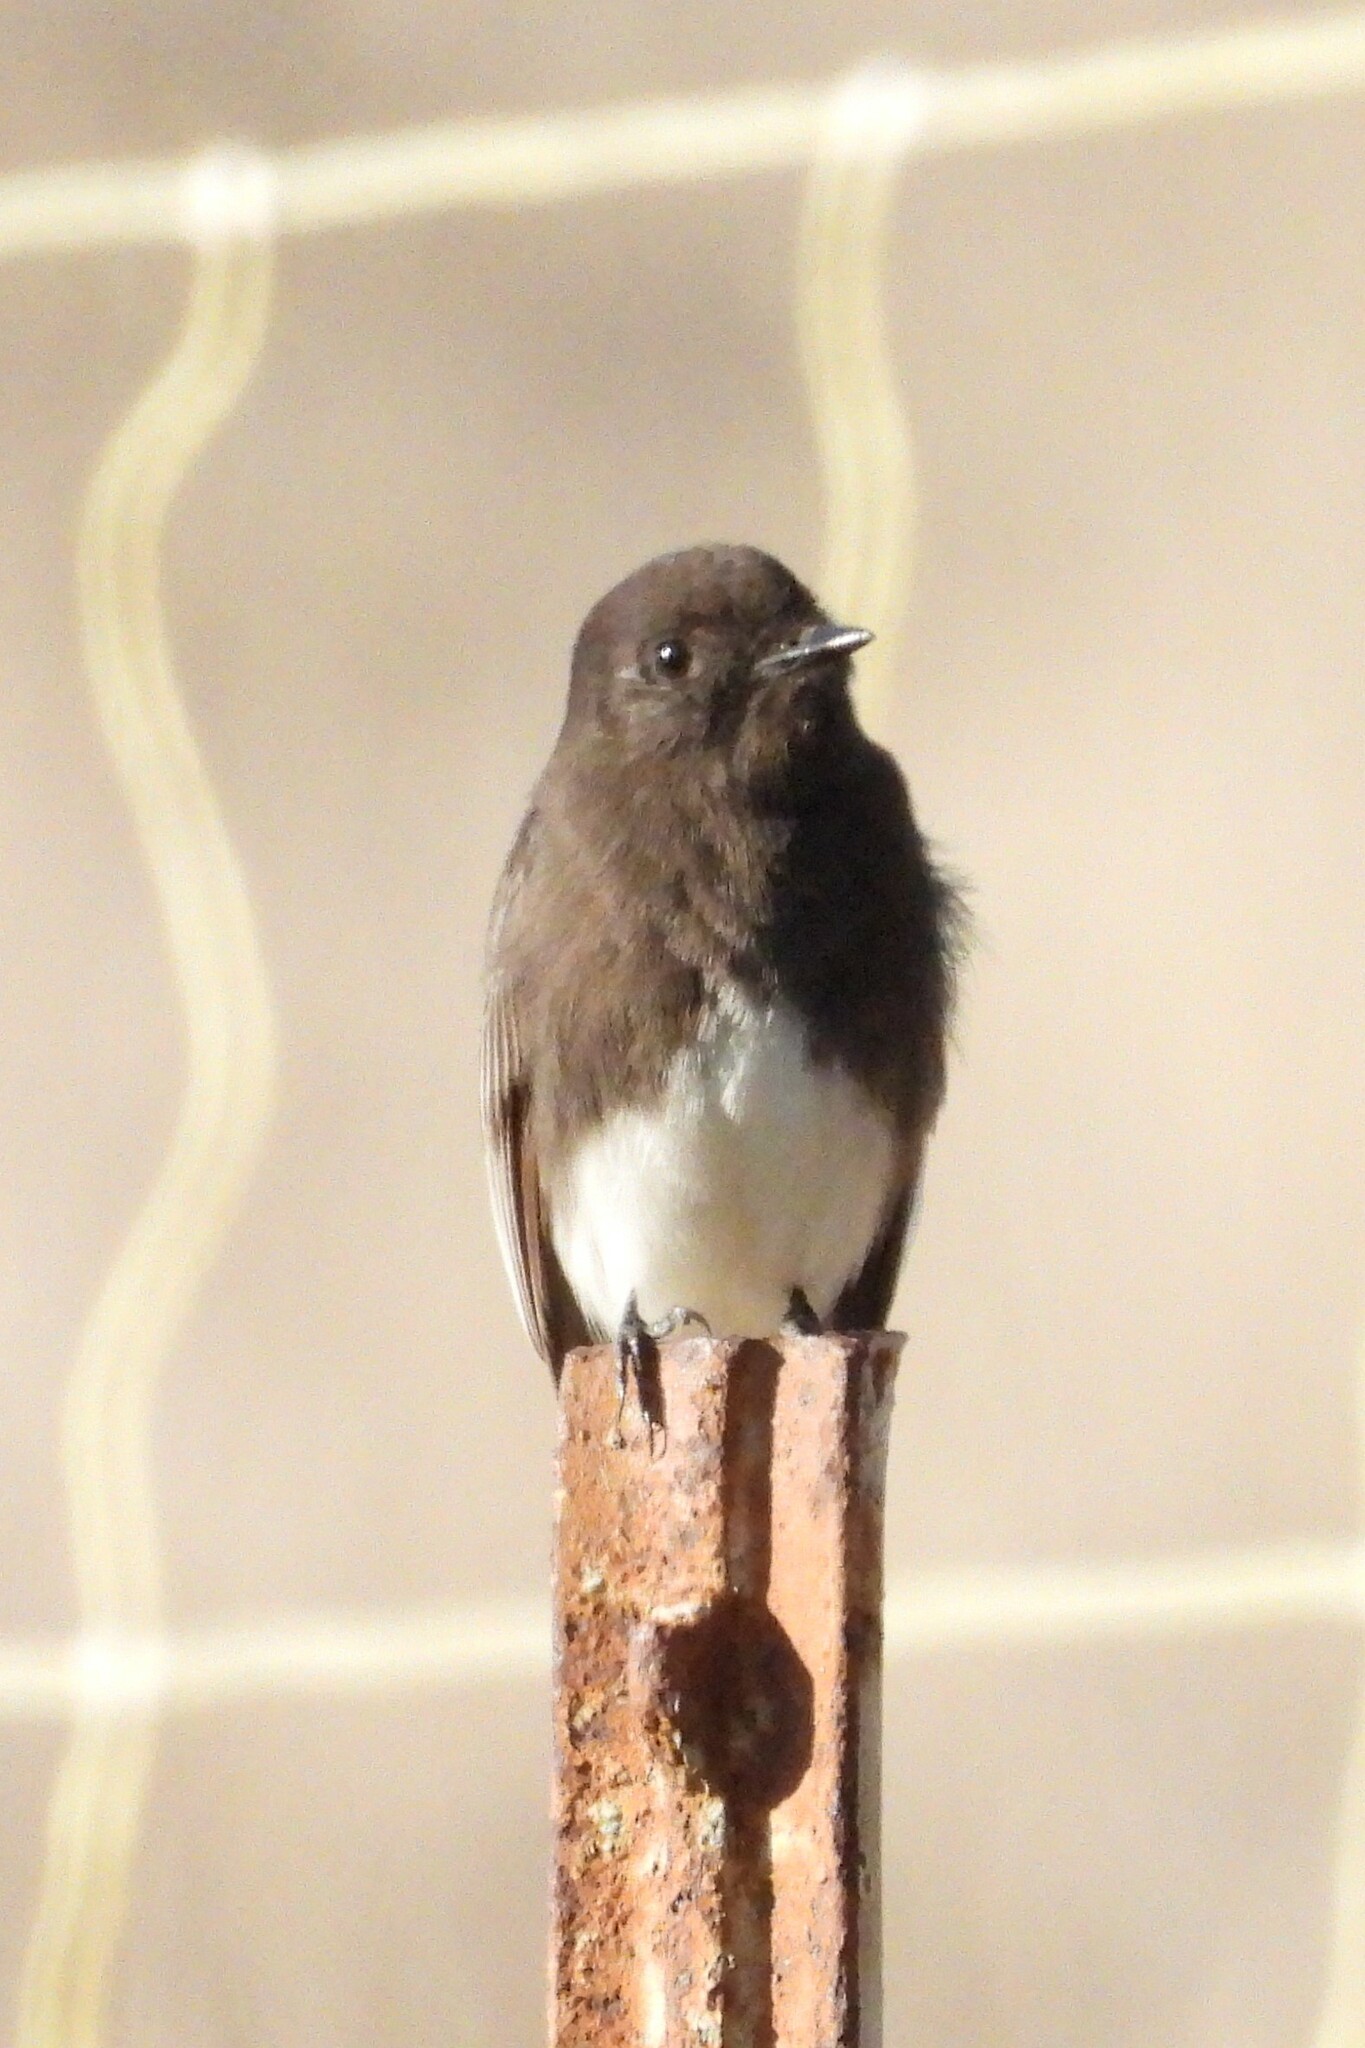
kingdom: Animalia
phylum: Chordata
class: Aves
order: Passeriformes
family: Tyrannidae
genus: Sayornis
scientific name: Sayornis nigricans
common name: Black phoebe
